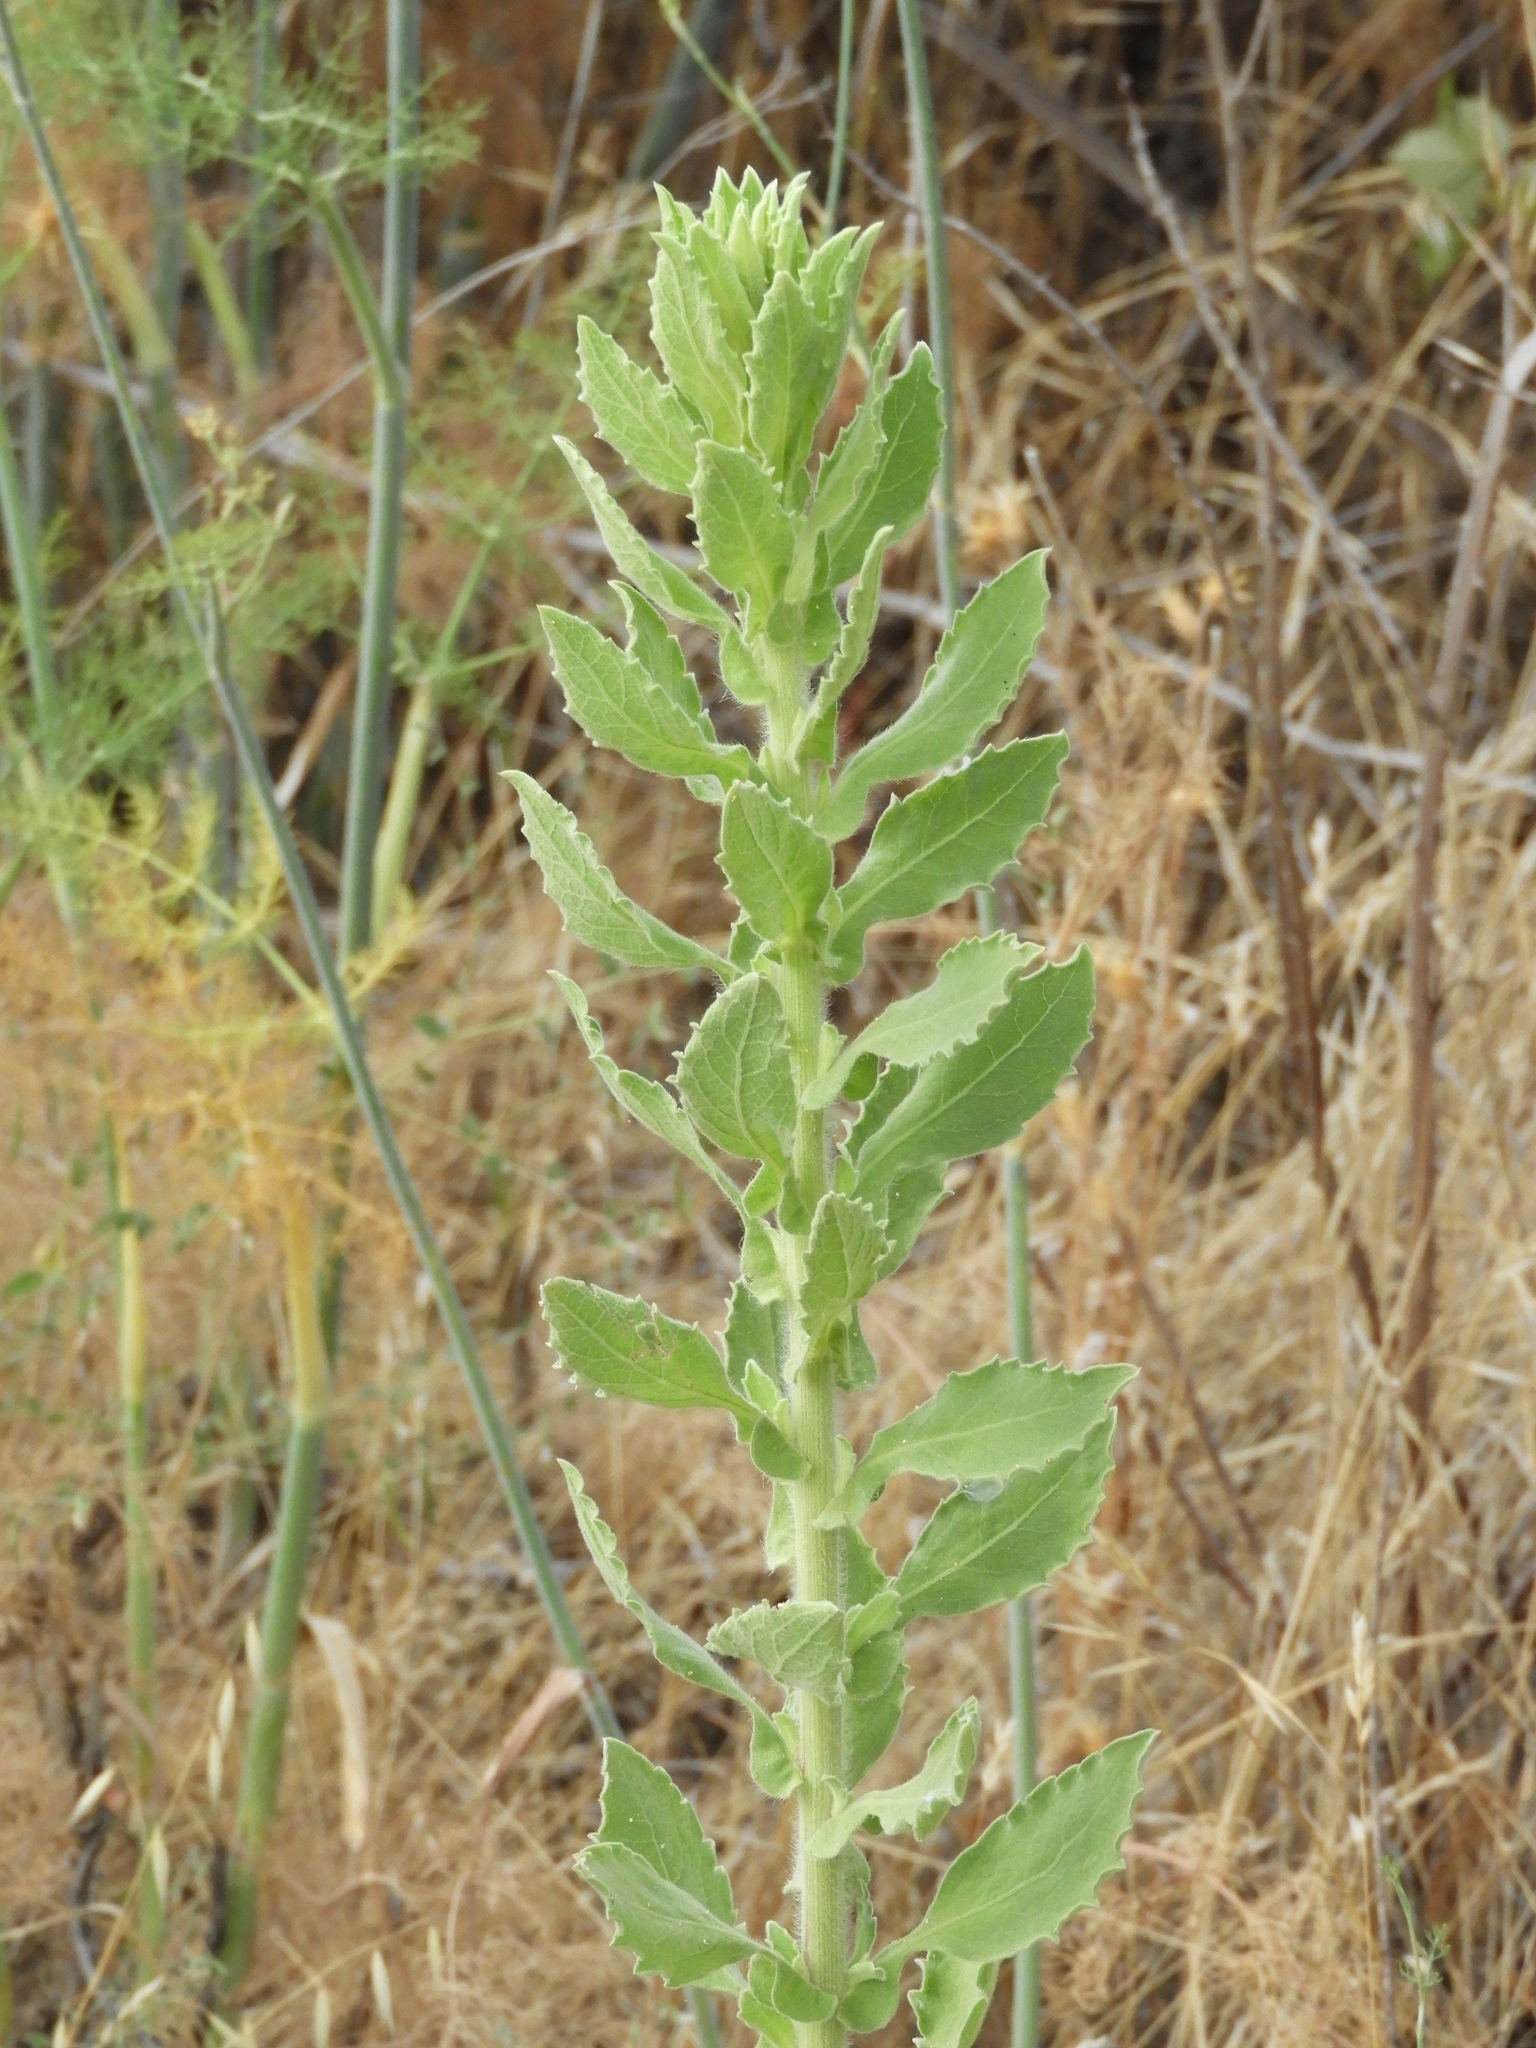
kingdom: Plantae
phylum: Tracheophyta
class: Magnoliopsida
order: Asterales
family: Asteraceae
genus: Heterotheca
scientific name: Heterotheca grandiflora
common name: Telegraphweed
